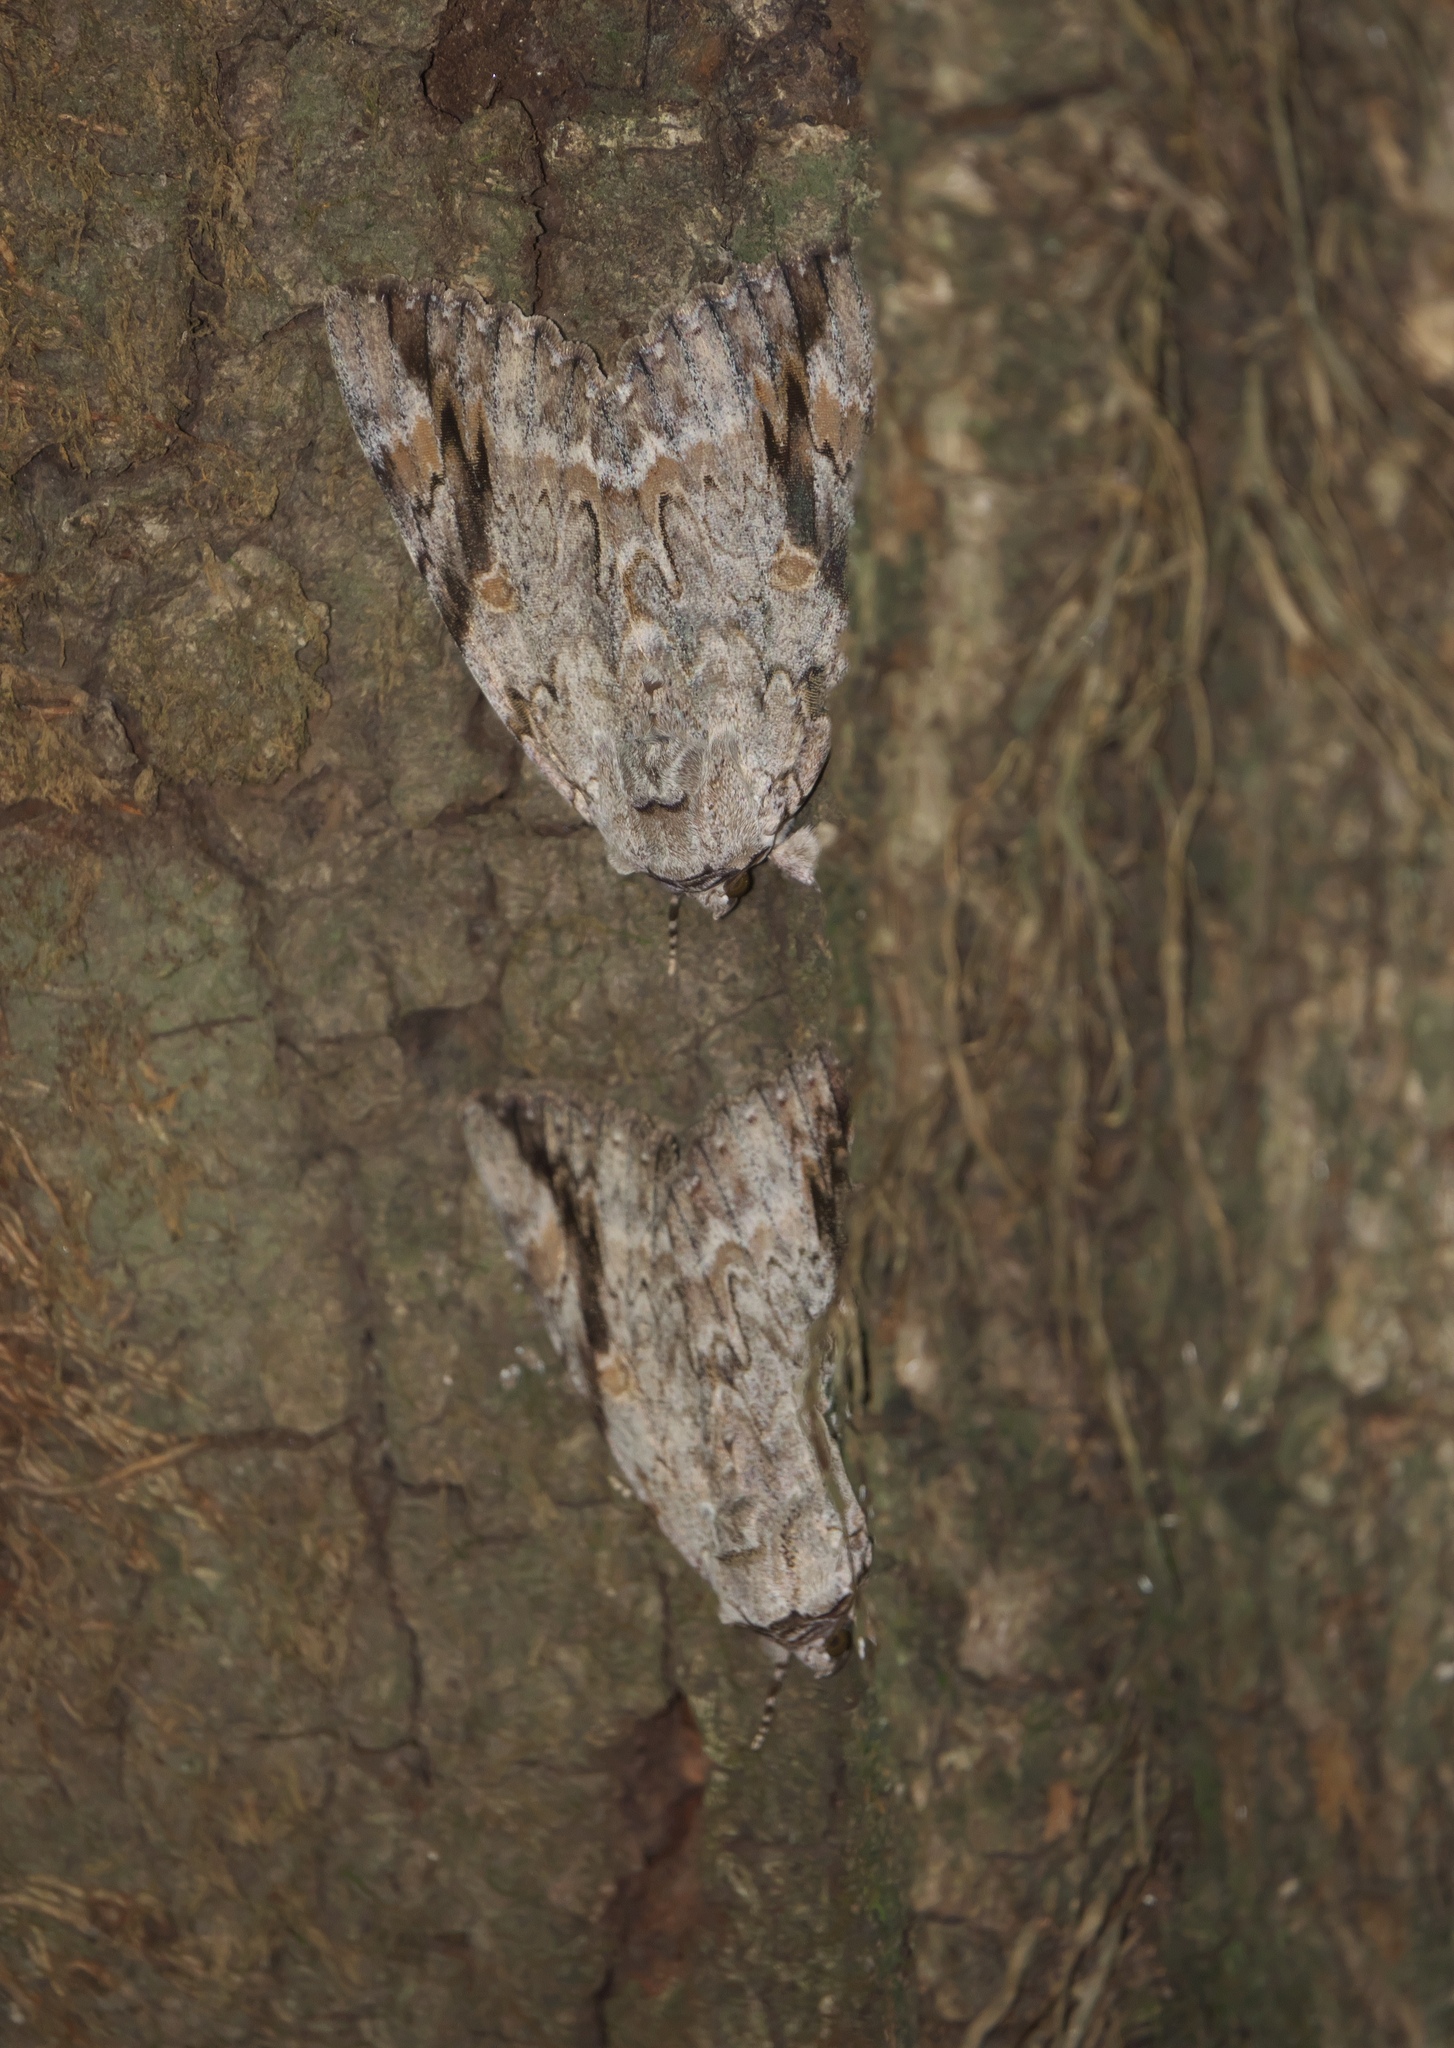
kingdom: Animalia
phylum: Arthropoda
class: Insecta
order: Lepidoptera
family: Erebidae
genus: Catocala
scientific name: Catocala maestosa
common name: Sad underwing
